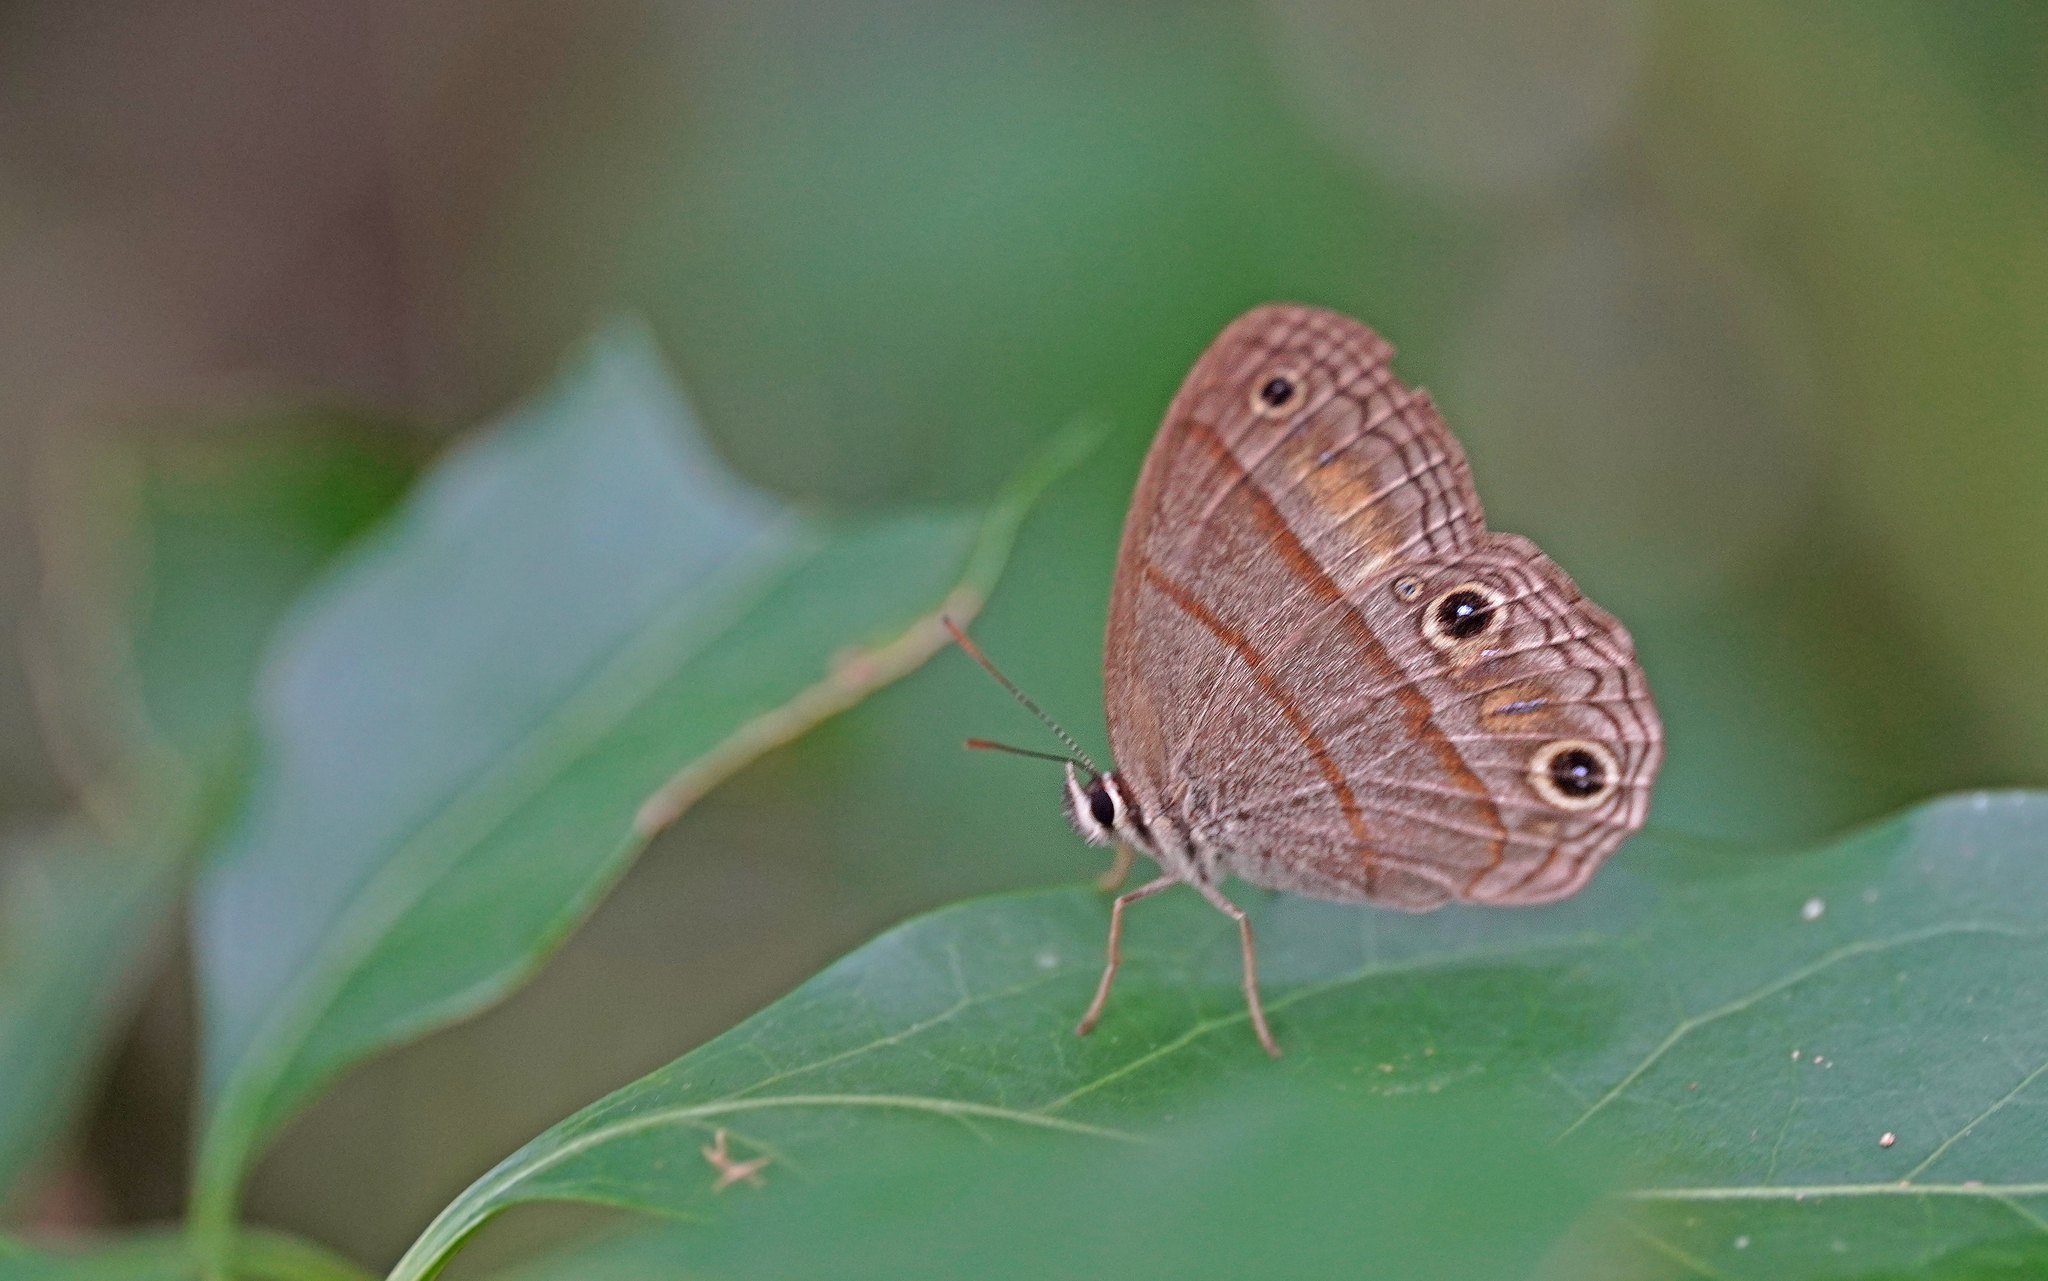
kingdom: Animalia
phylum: Arthropoda
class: Insecta
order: Lepidoptera
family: Nymphalidae
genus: Euptychia
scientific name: Euptychia Cissia pompilia
